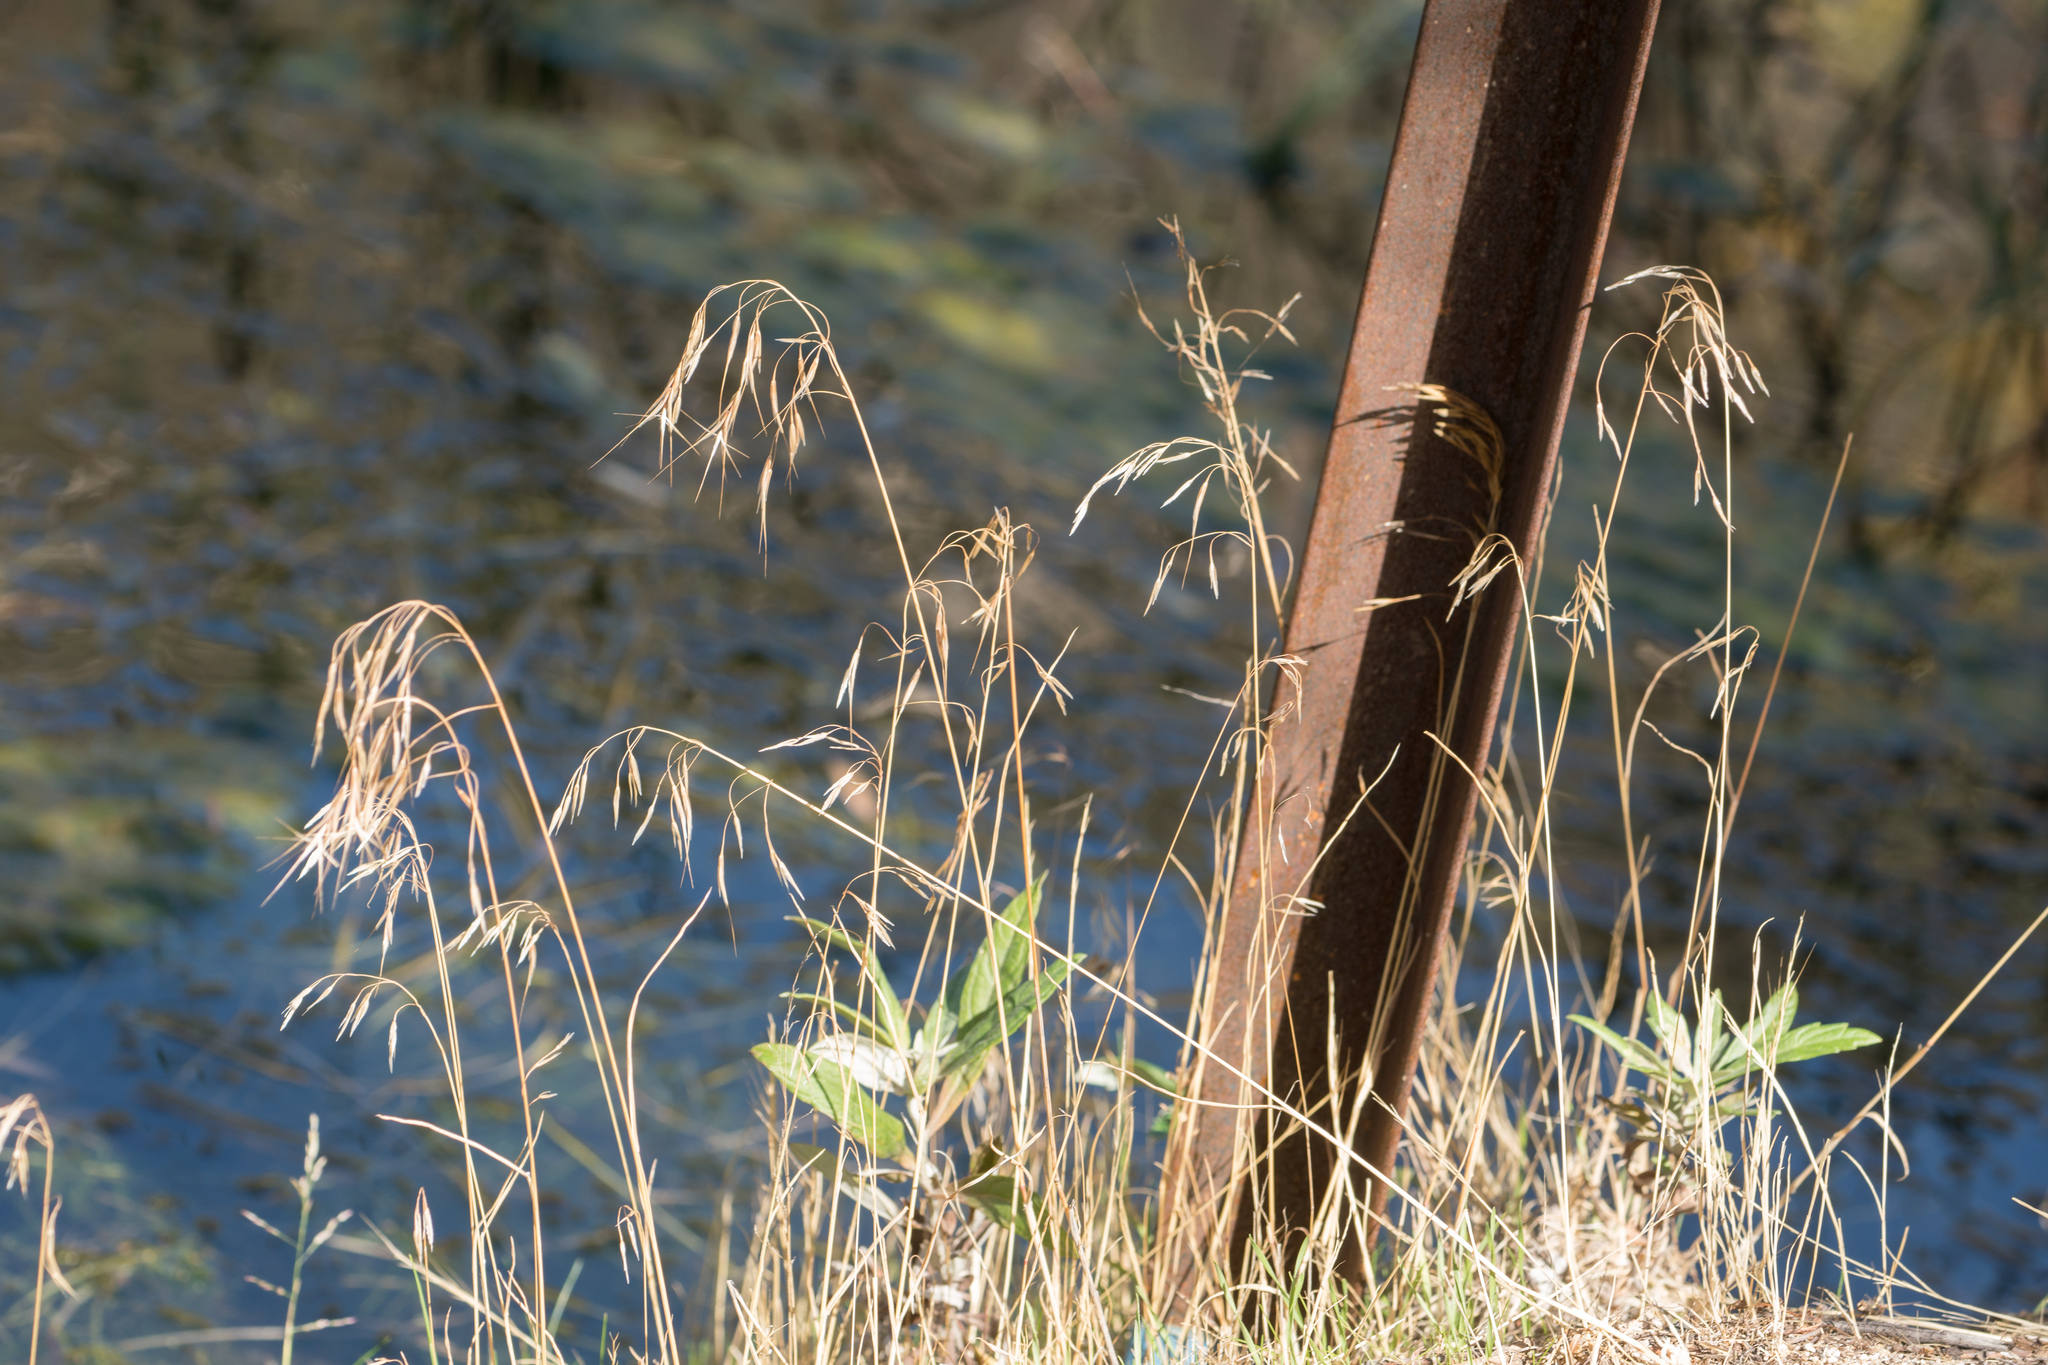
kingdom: Plantae
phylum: Tracheophyta
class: Liliopsida
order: Poales
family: Poaceae
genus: Bromus
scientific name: Bromus tectorum
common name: Cheatgrass
